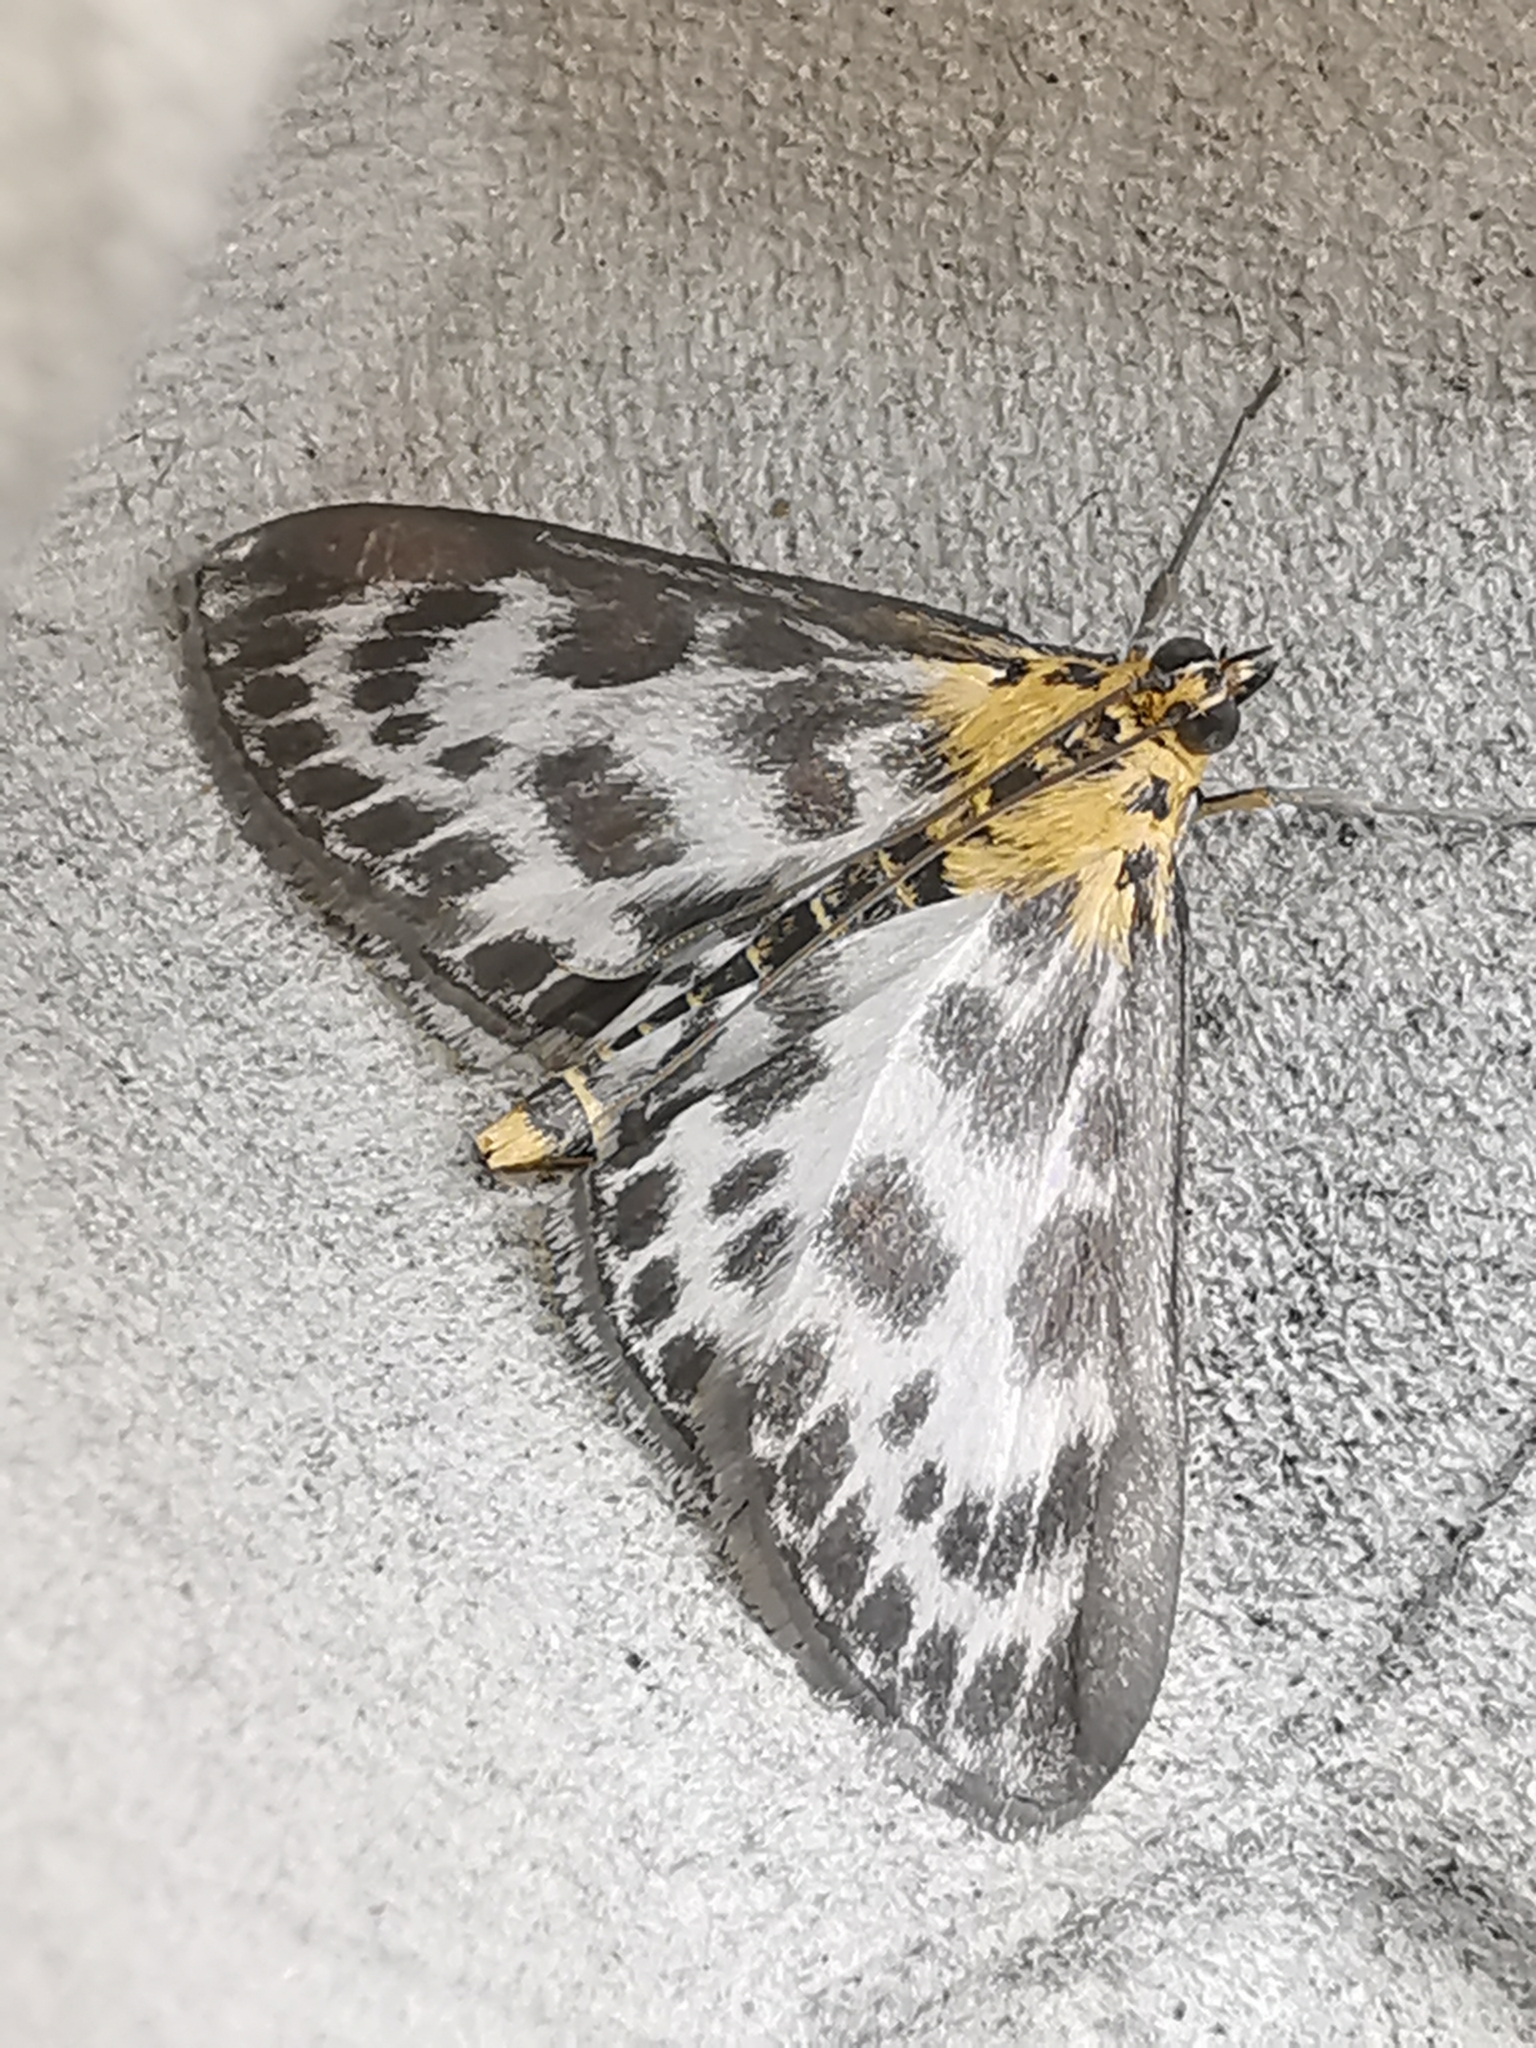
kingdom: Animalia
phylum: Arthropoda
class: Insecta
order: Lepidoptera
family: Crambidae
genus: Anania
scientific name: Anania hortulata
